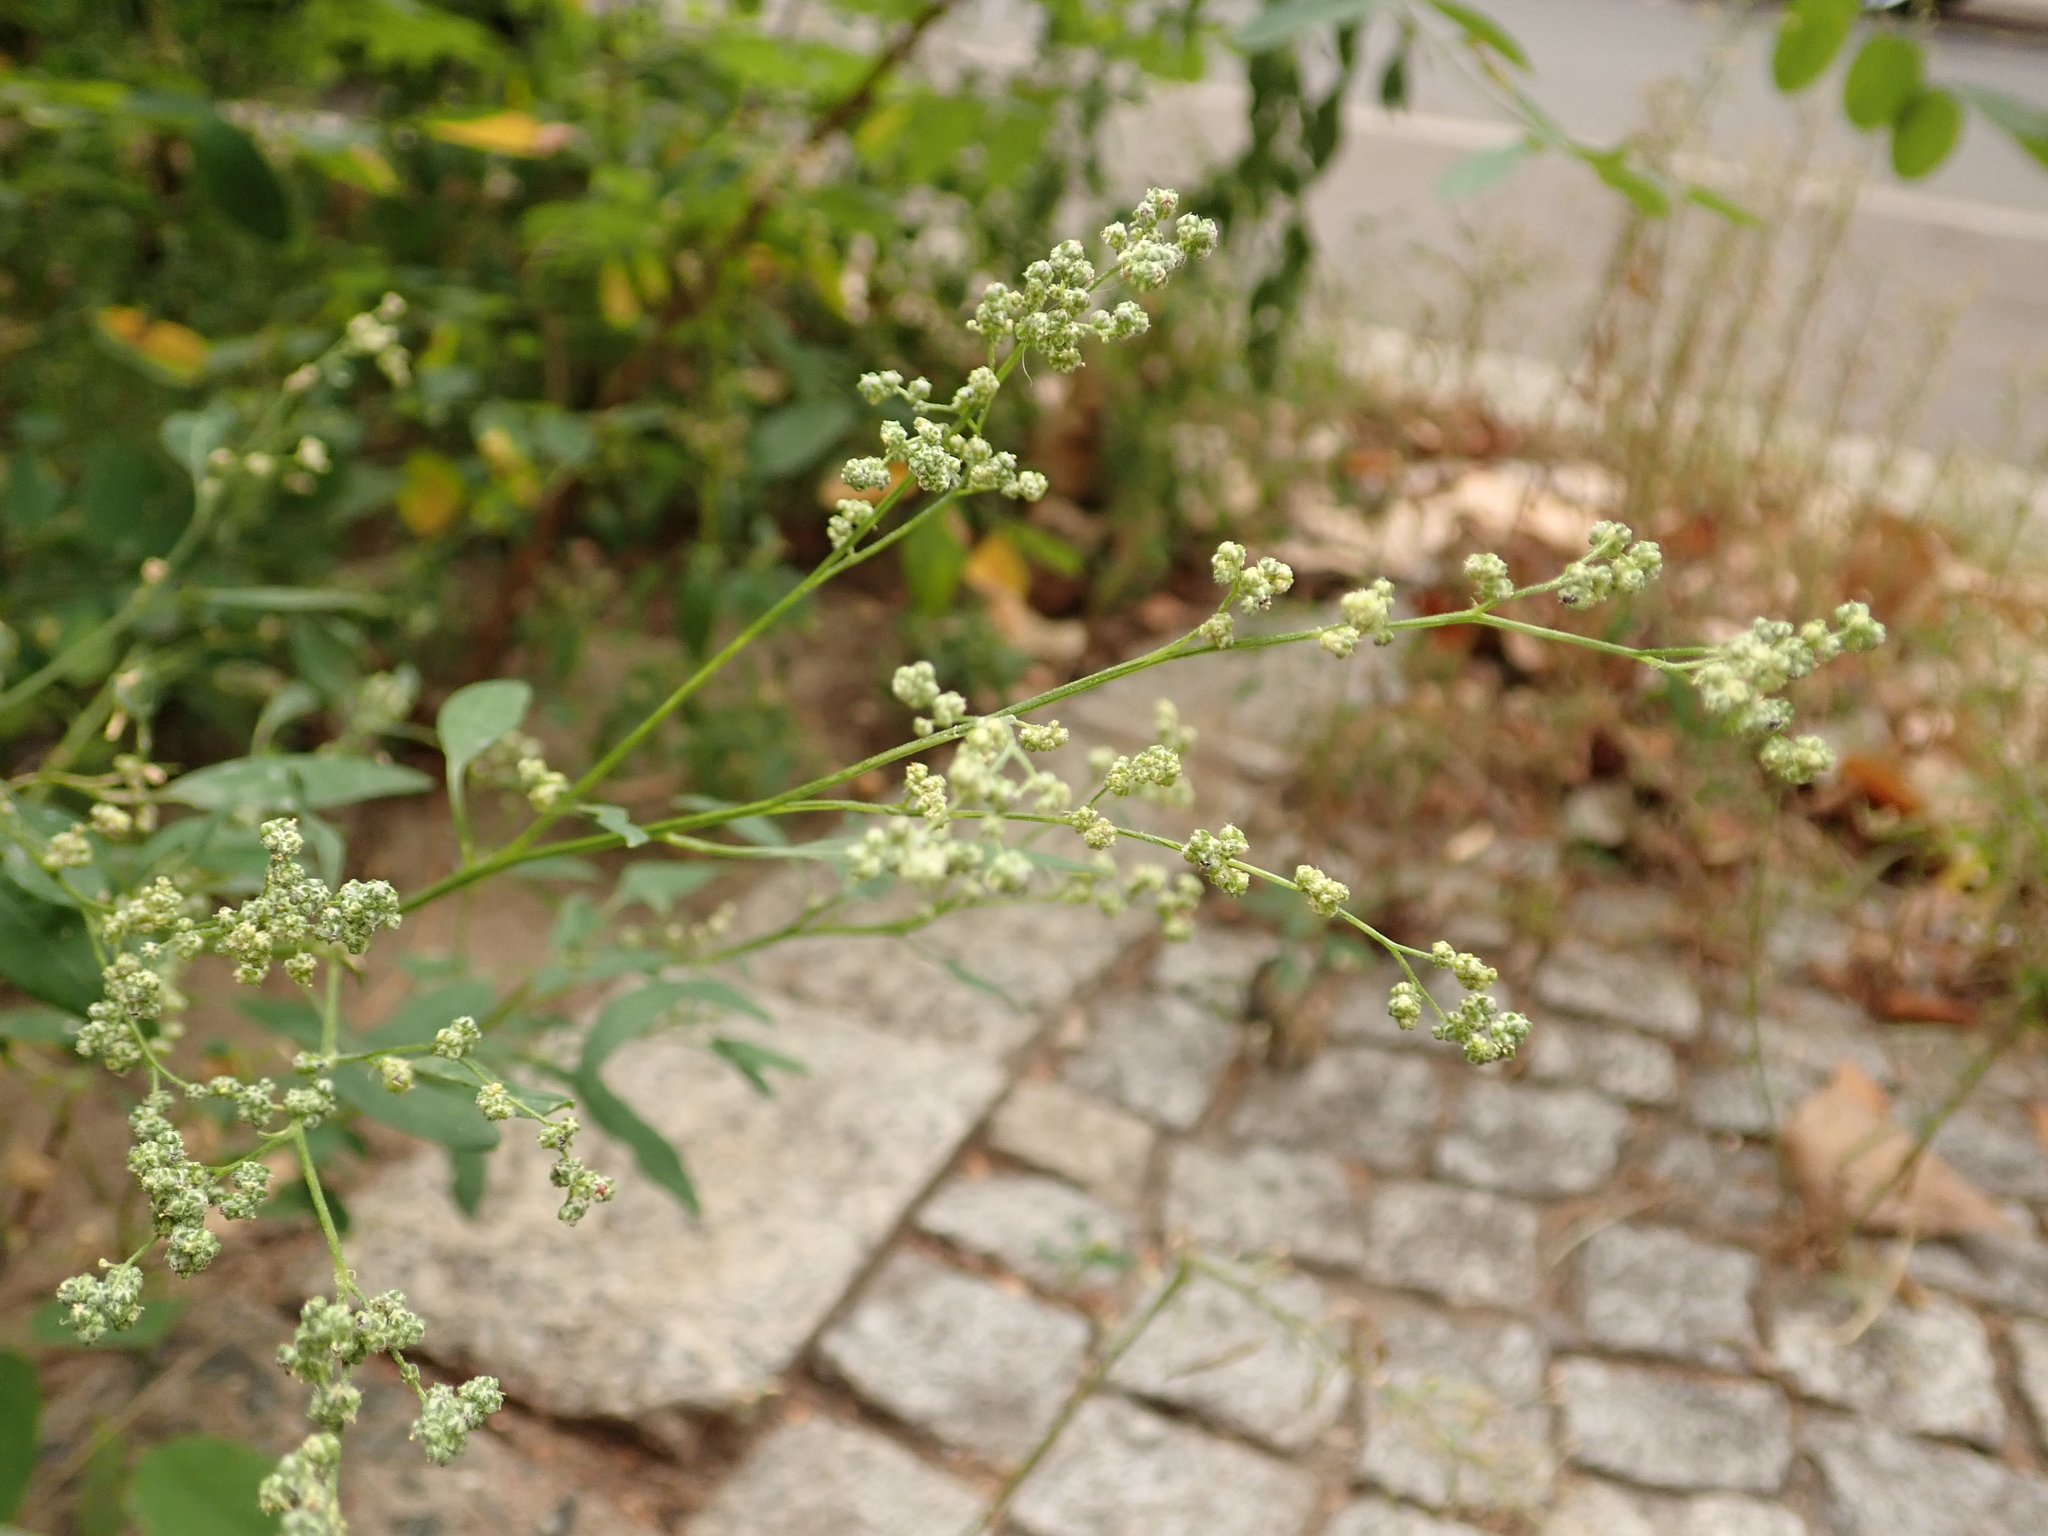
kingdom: Plantae
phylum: Tracheophyta
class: Magnoliopsida
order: Caryophyllales
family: Amaranthaceae
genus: Chenopodium
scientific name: Chenopodium album
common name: Fat-hen
